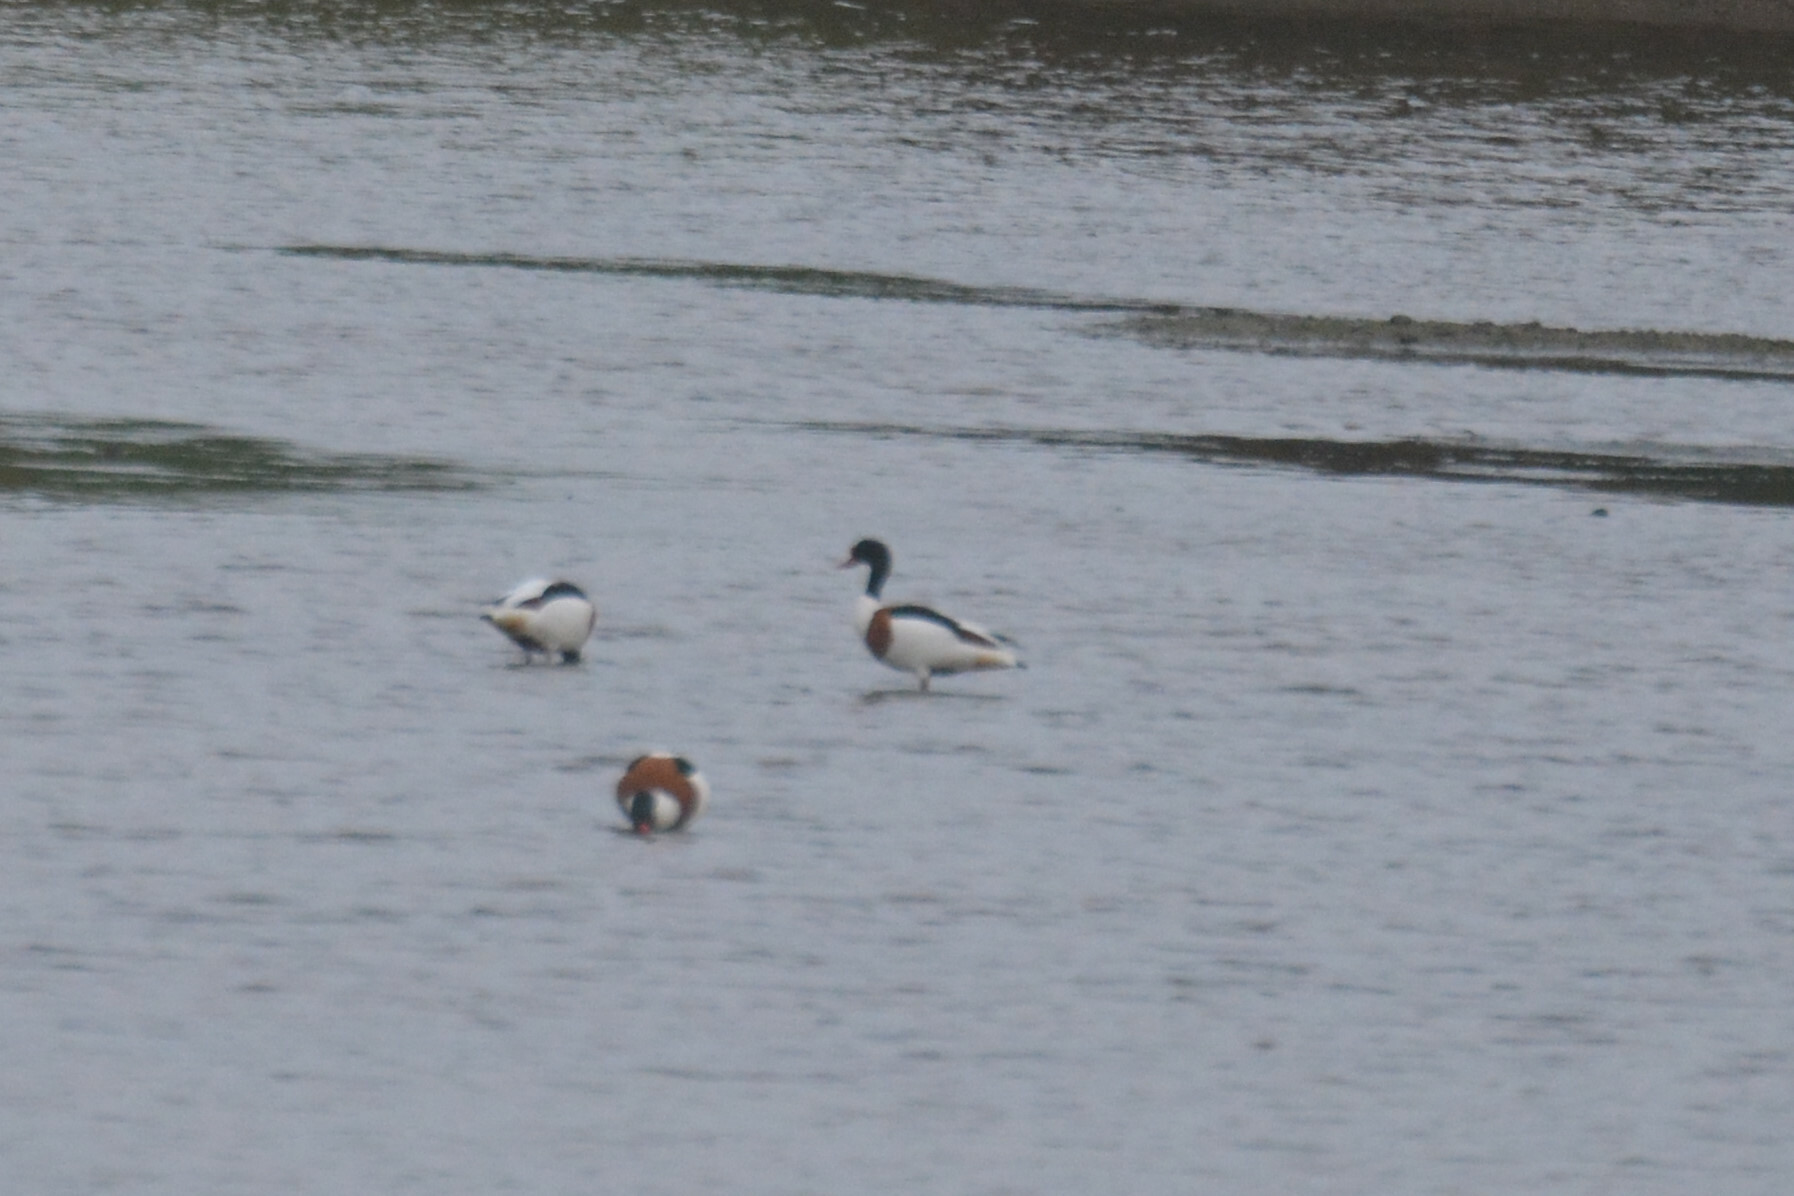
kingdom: Animalia
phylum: Chordata
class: Aves
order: Anseriformes
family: Anatidae
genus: Tadorna
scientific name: Tadorna tadorna
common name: Common shelduck
